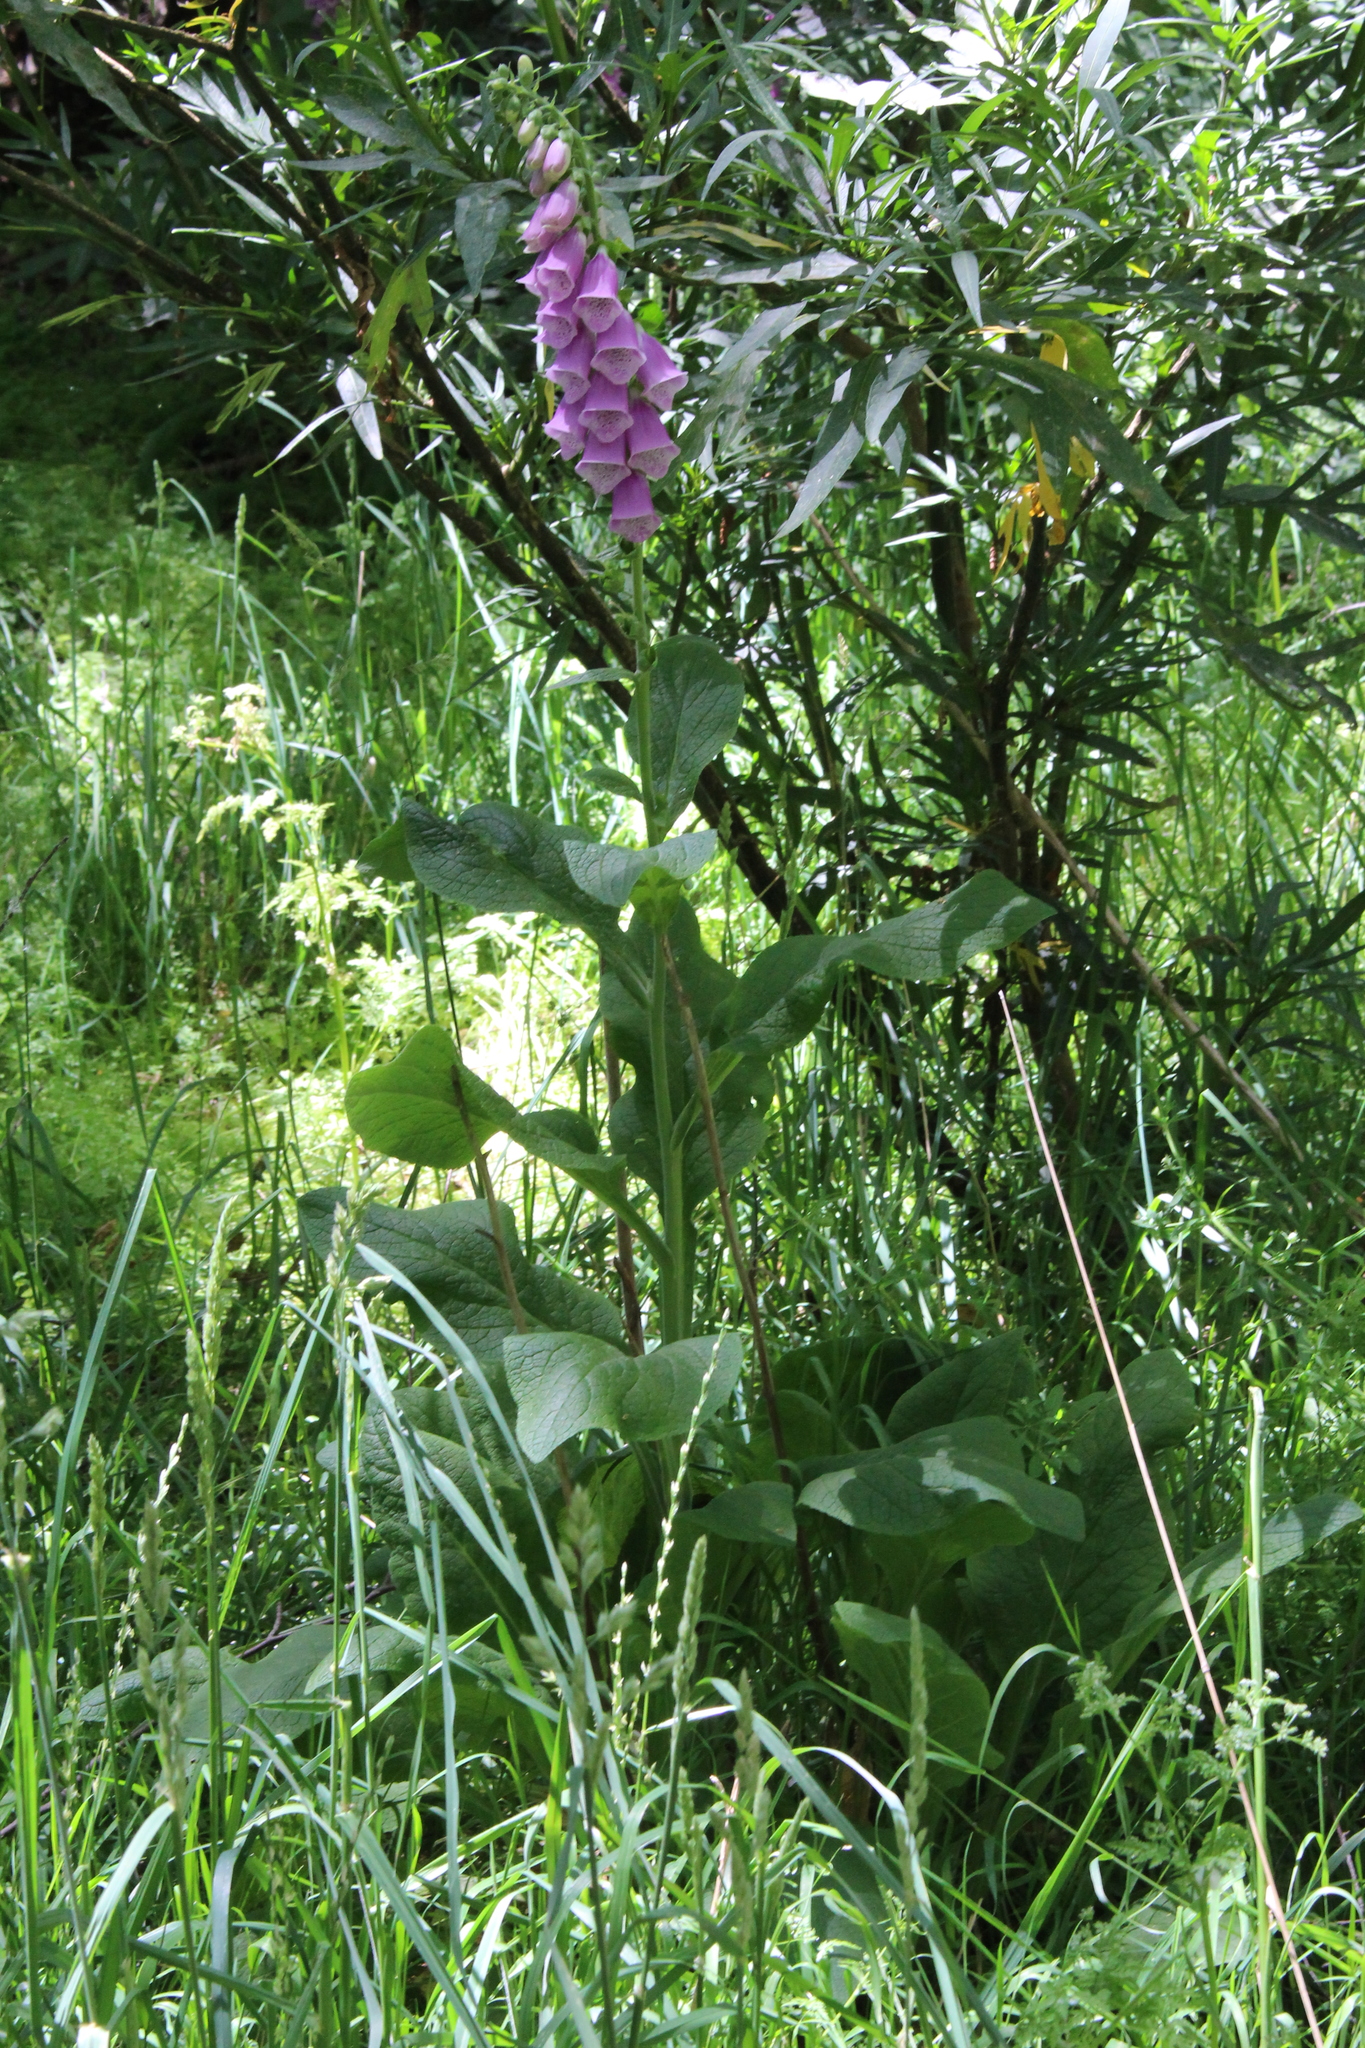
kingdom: Plantae
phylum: Tracheophyta
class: Magnoliopsida
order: Lamiales
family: Plantaginaceae
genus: Digitalis
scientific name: Digitalis purpurea
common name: Foxglove
